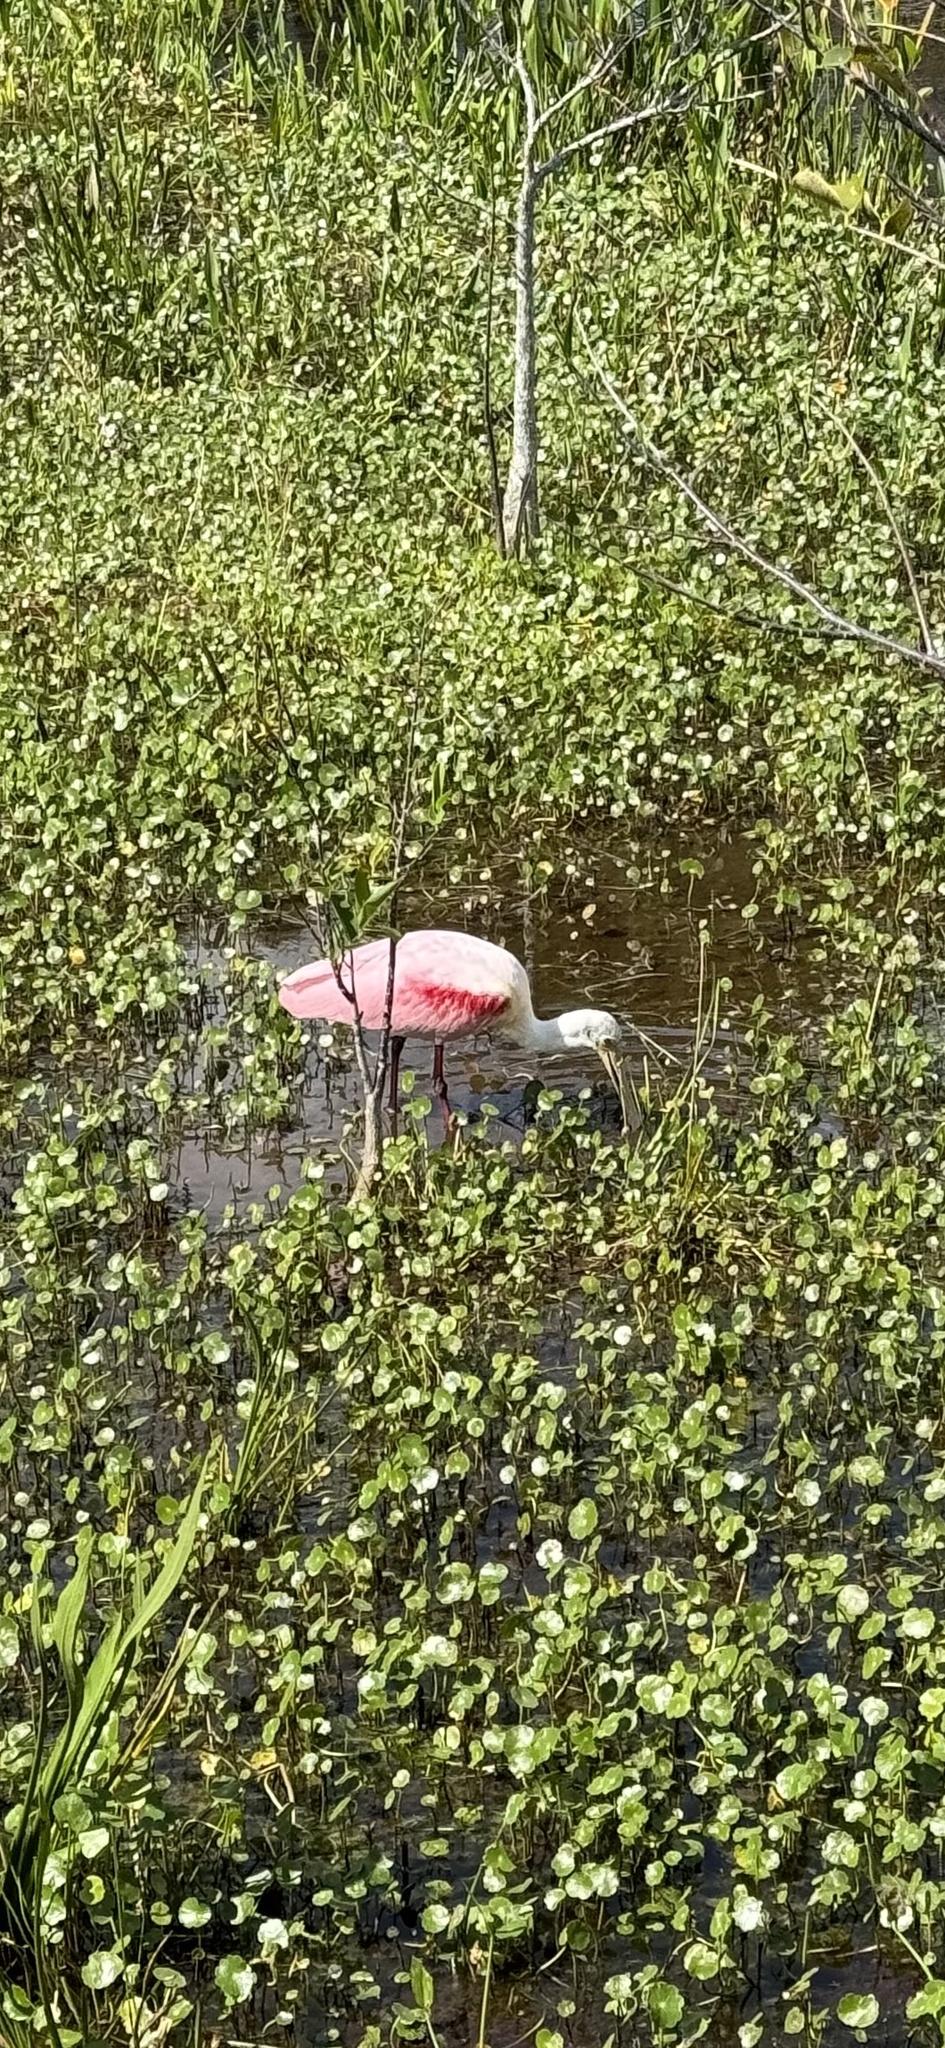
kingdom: Animalia
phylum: Chordata
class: Aves
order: Pelecaniformes
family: Threskiornithidae
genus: Platalea
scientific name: Platalea ajaja
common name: Roseate spoonbill
